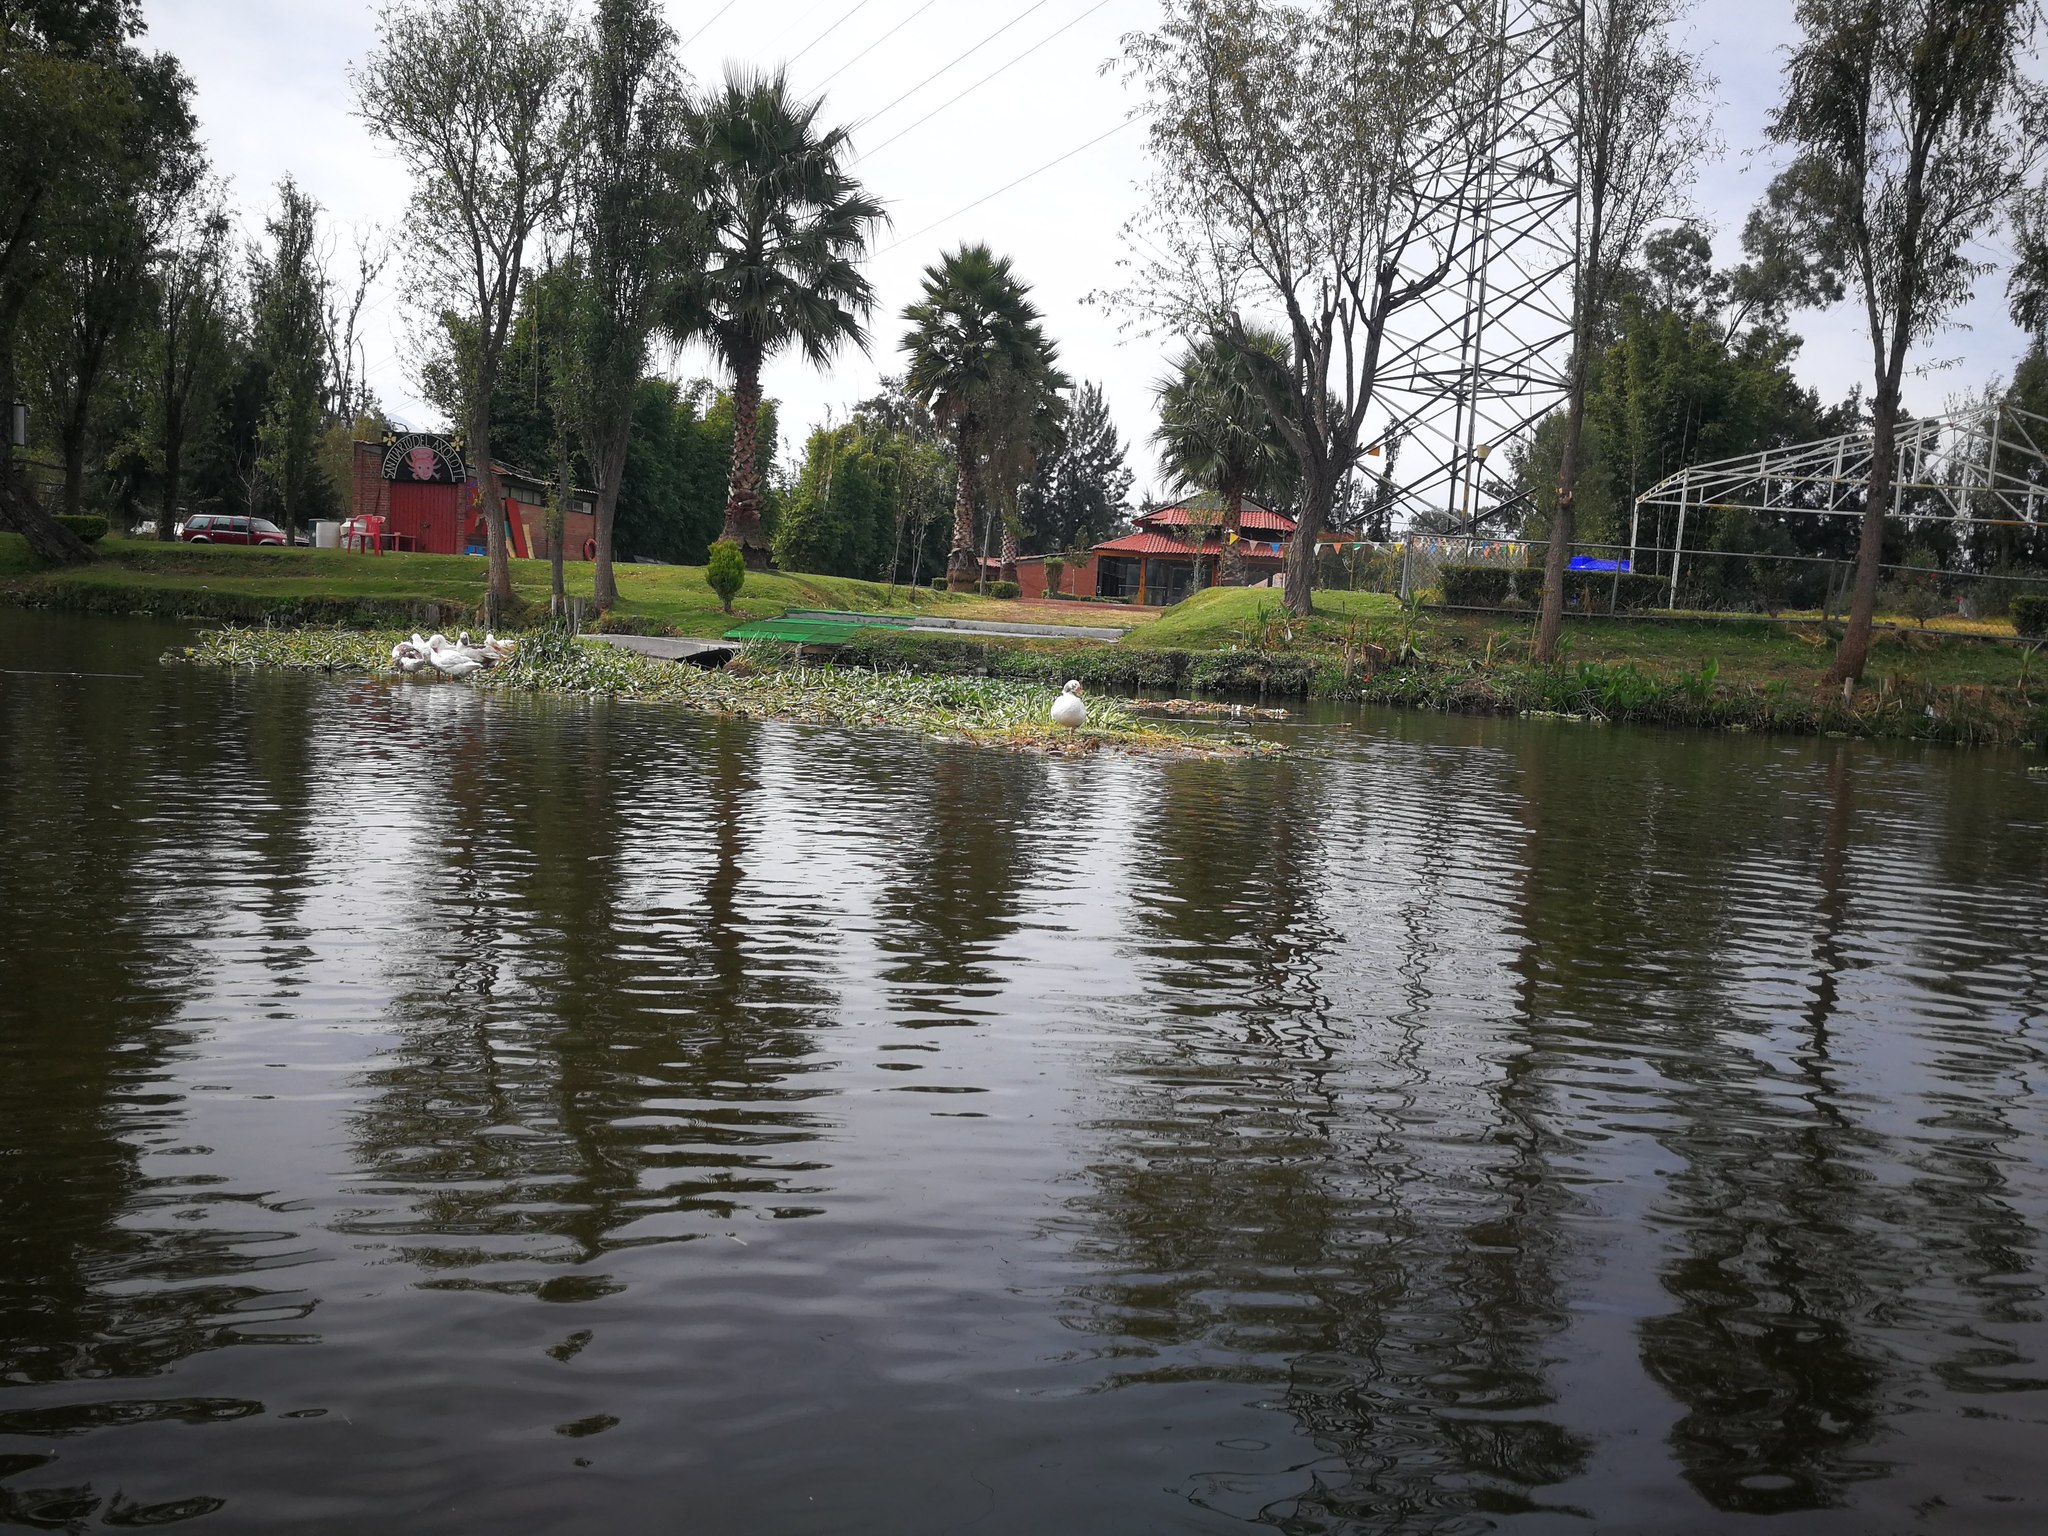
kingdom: Animalia
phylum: Chordata
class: Aves
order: Anseriformes
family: Anatidae
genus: Cairina
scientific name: Cairina moschata
